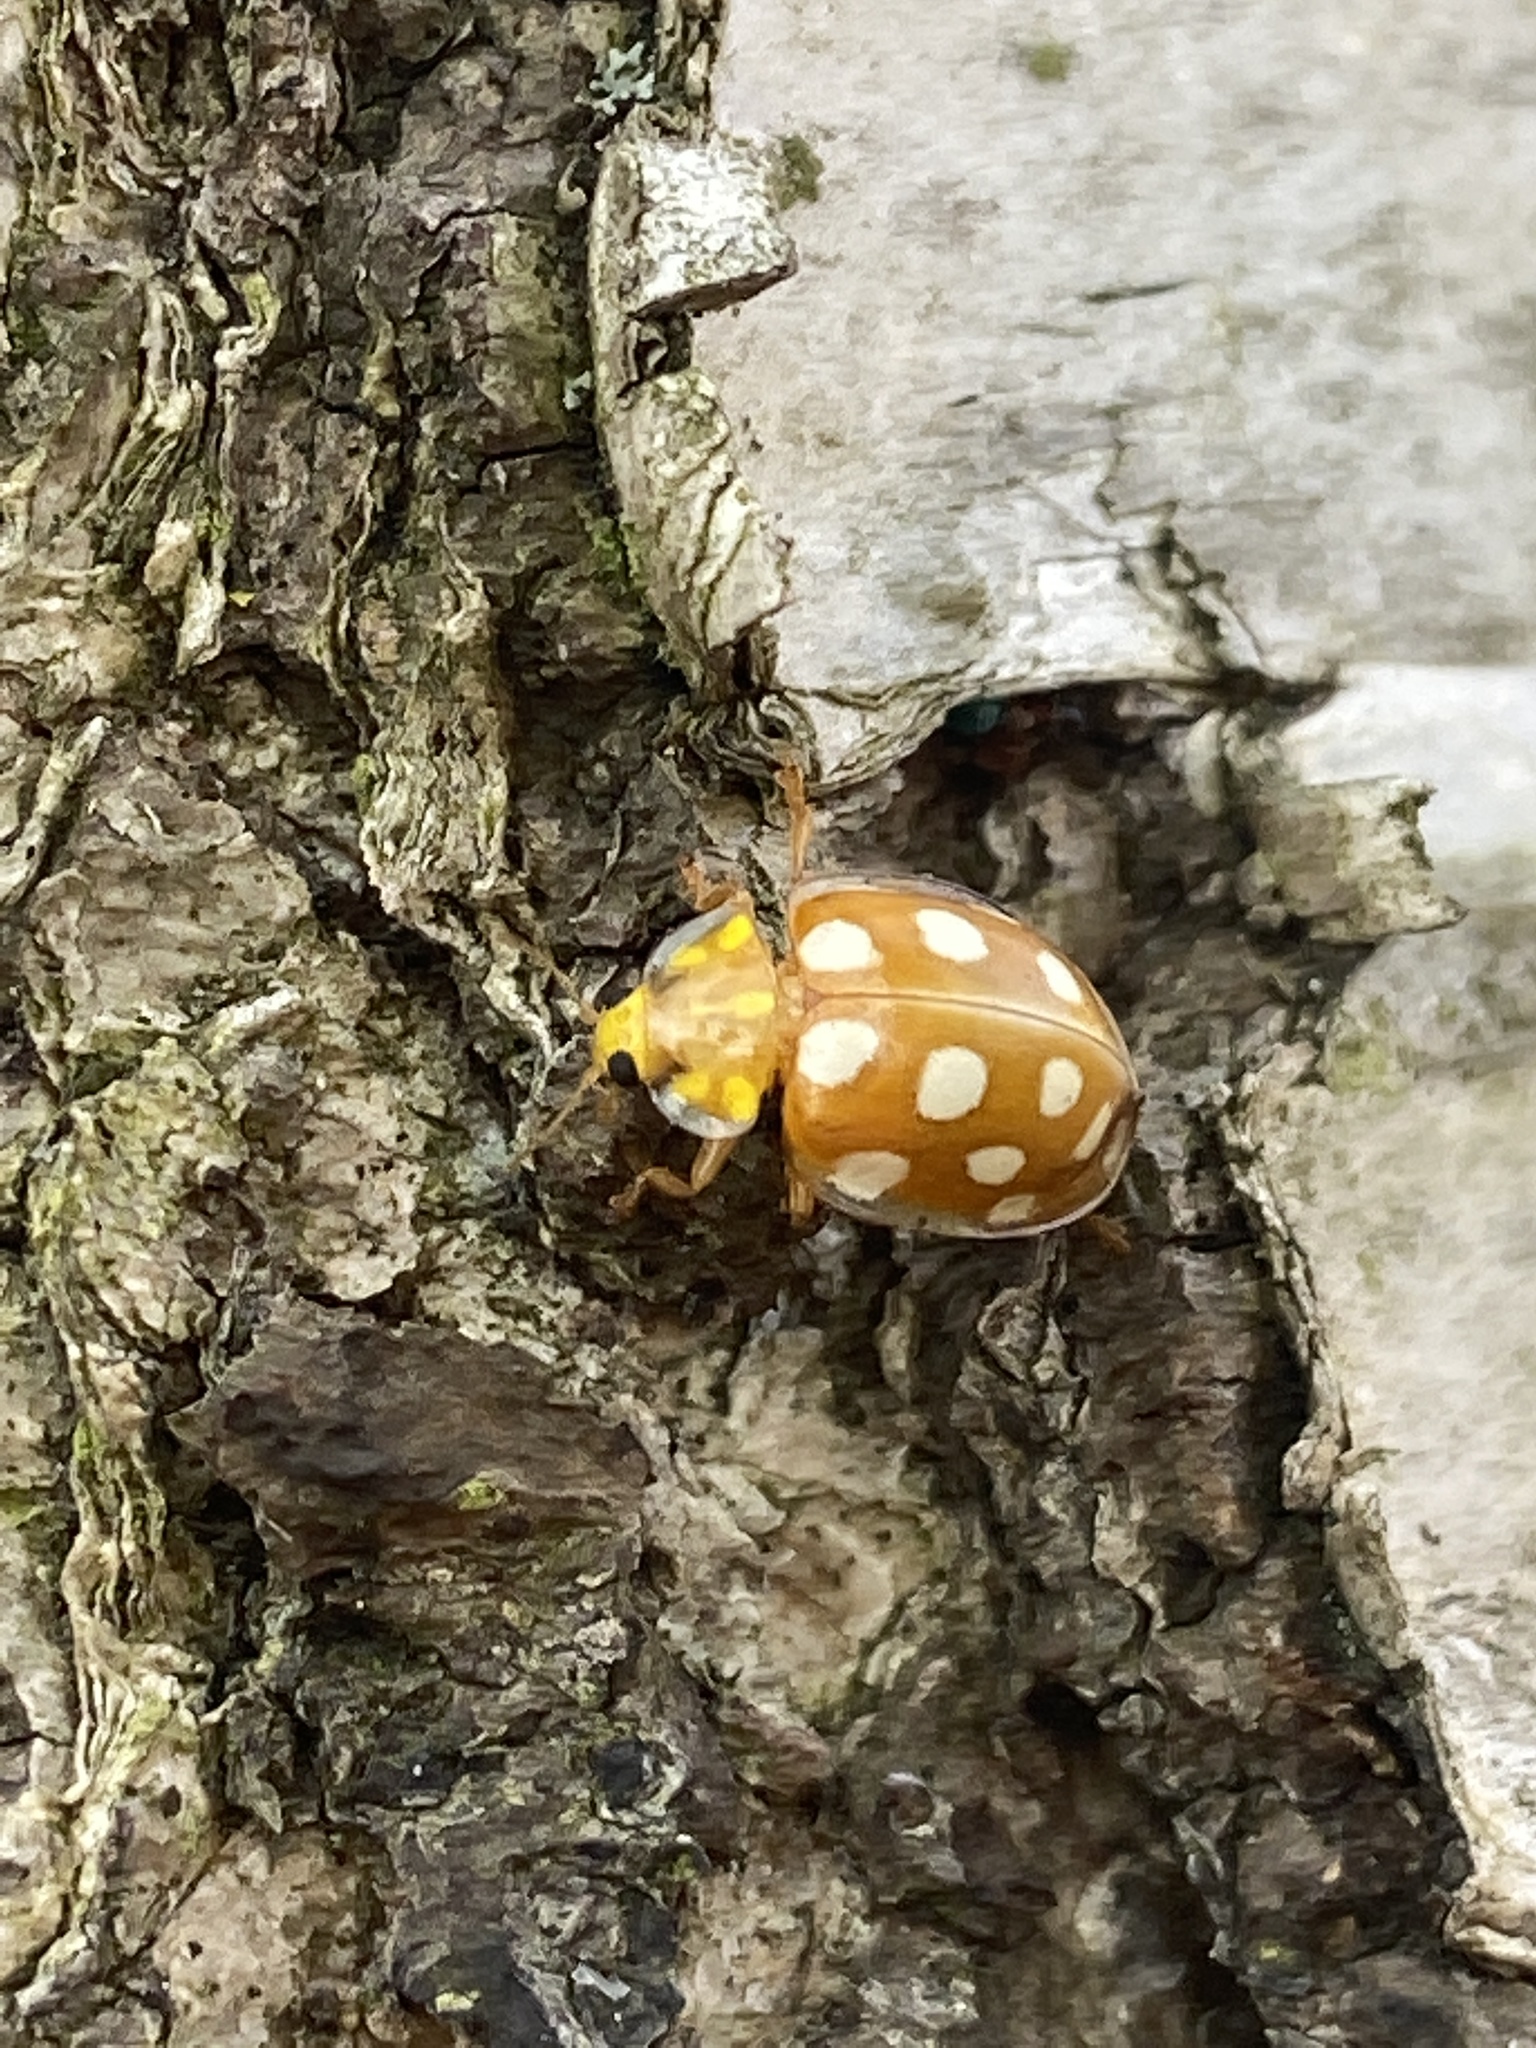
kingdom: Animalia
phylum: Arthropoda
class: Insecta
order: Coleoptera
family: Coccinellidae
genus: Halyzia
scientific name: Halyzia sedecimguttata
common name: Orange ladybird
